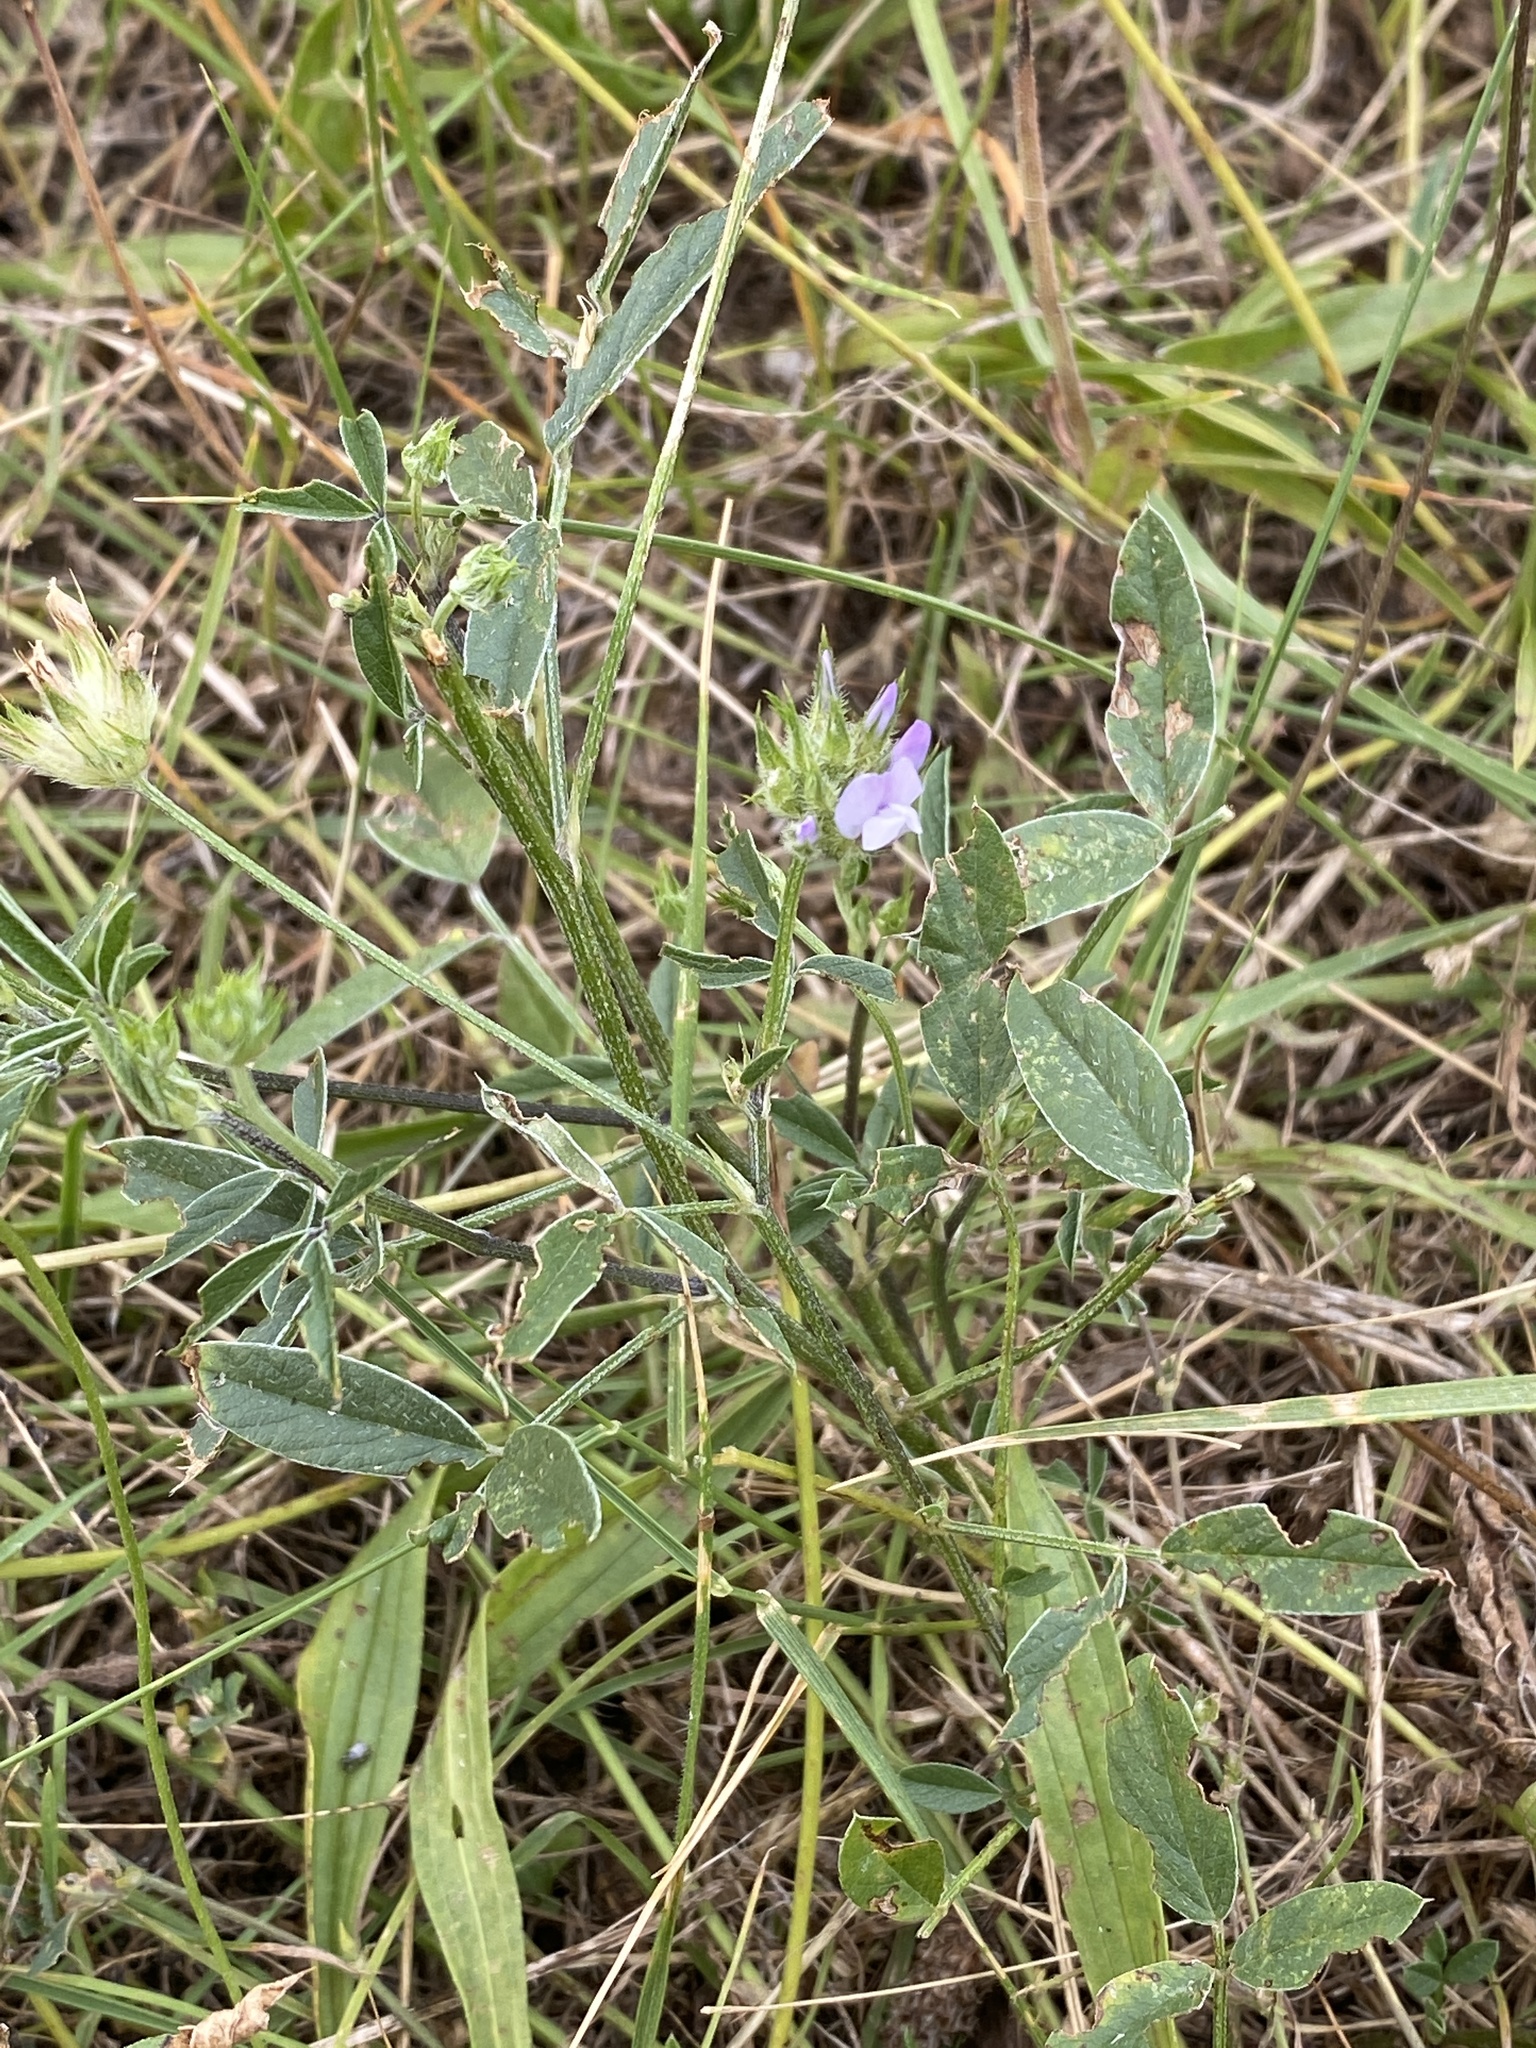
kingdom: Plantae
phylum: Tracheophyta
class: Magnoliopsida
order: Fabales
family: Fabaceae
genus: Bituminaria
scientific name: Bituminaria bituminosa
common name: Arabian pea
